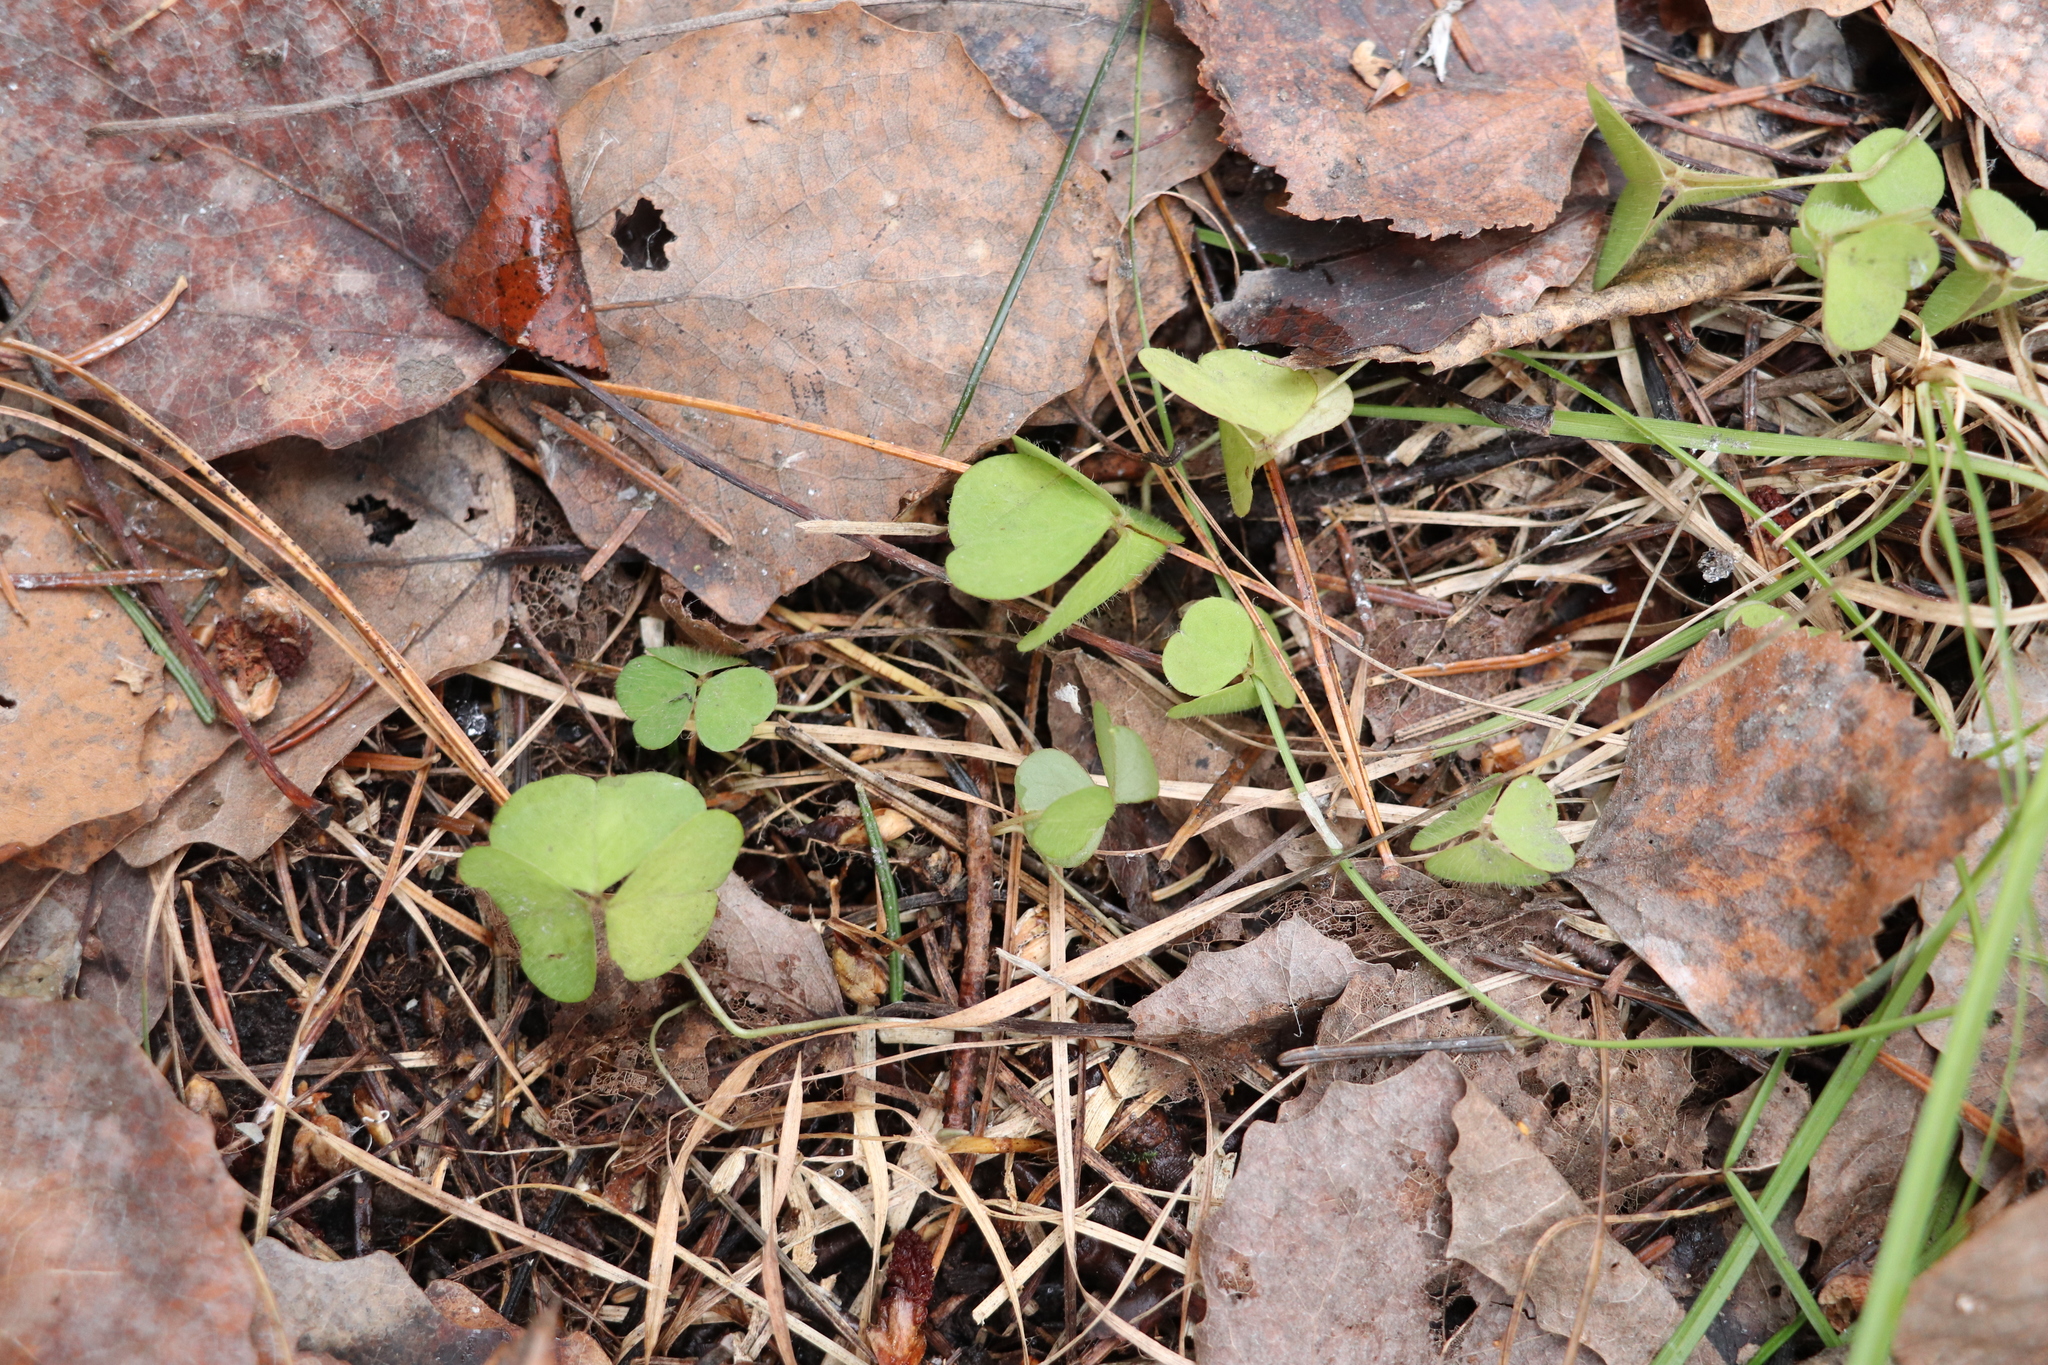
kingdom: Plantae
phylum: Tracheophyta
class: Magnoliopsida
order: Oxalidales
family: Oxalidaceae
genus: Oxalis
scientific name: Oxalis acetosella
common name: Wood-sorrel
